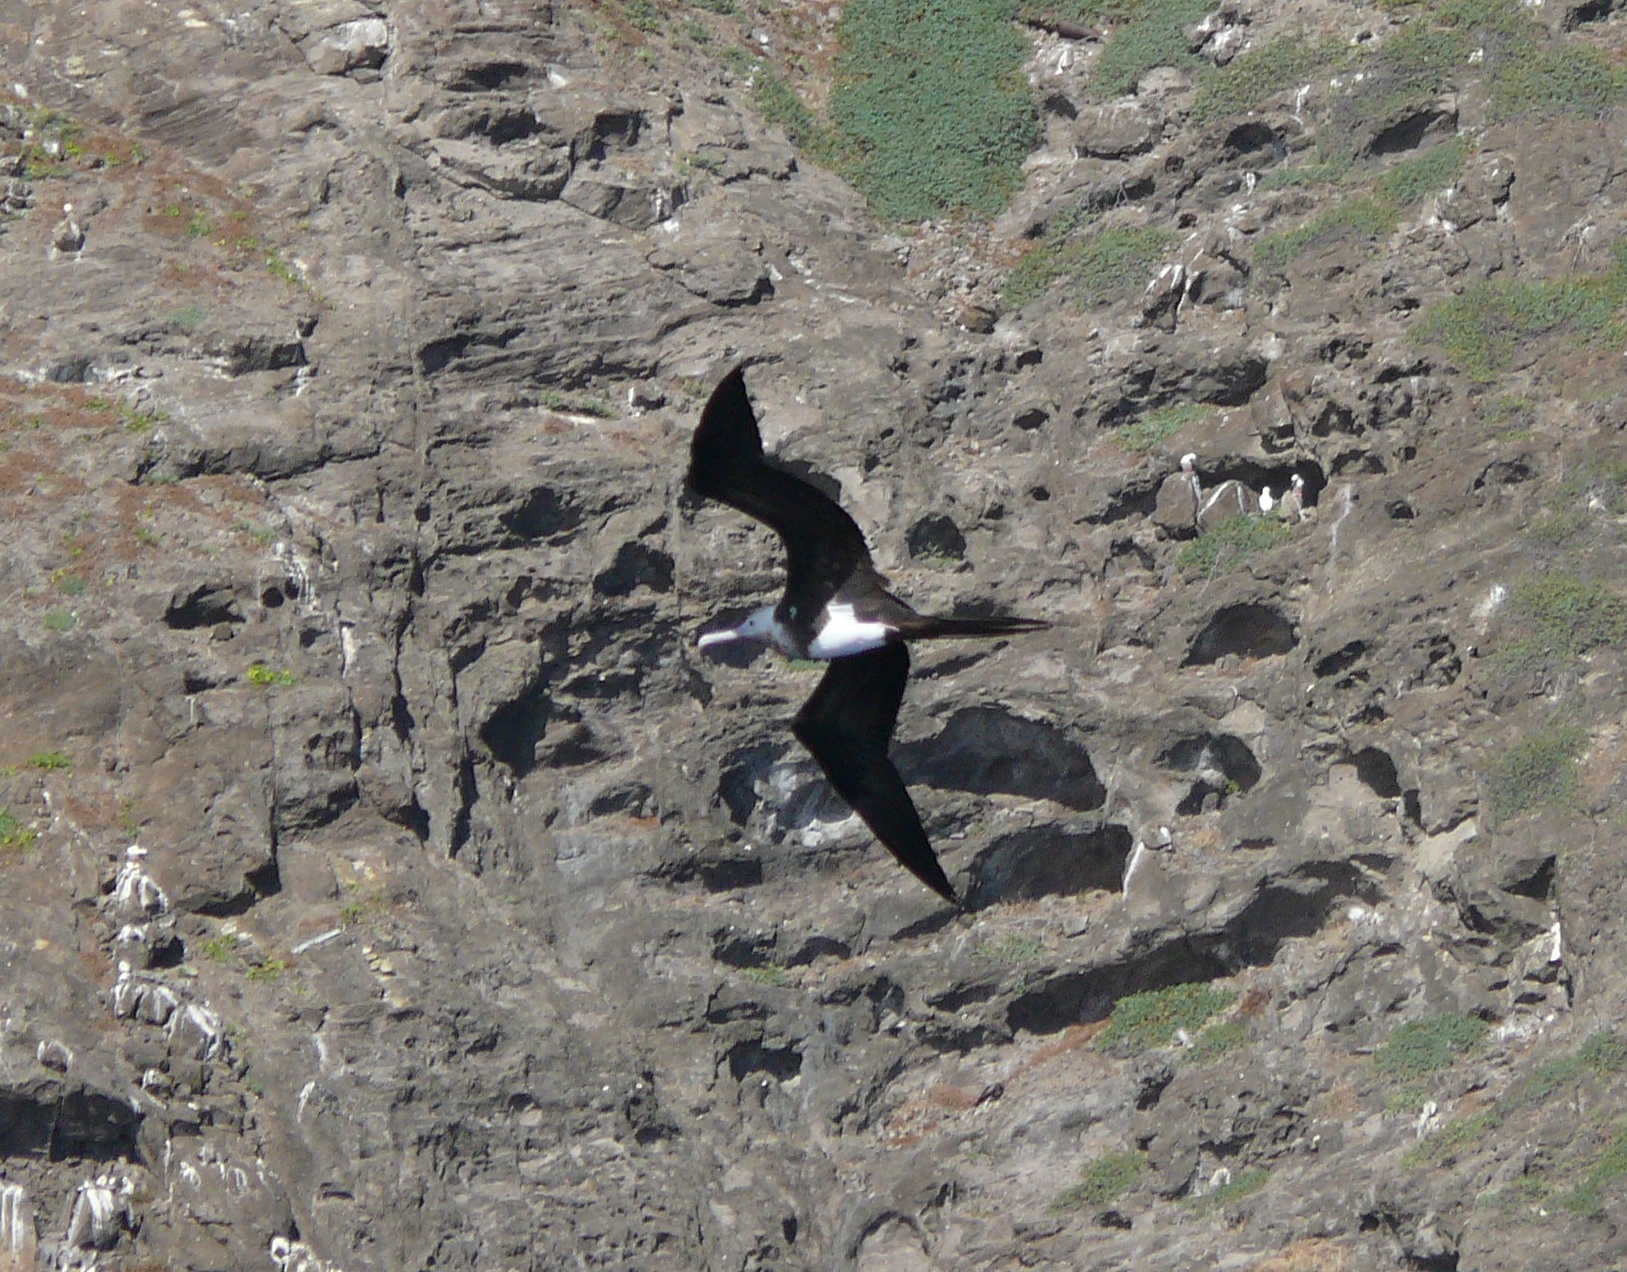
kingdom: Animalia
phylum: Chordata
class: Aves
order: Suliformes
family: Fregatidae
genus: Fregata
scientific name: Fregata minor
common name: Great frigatebird
